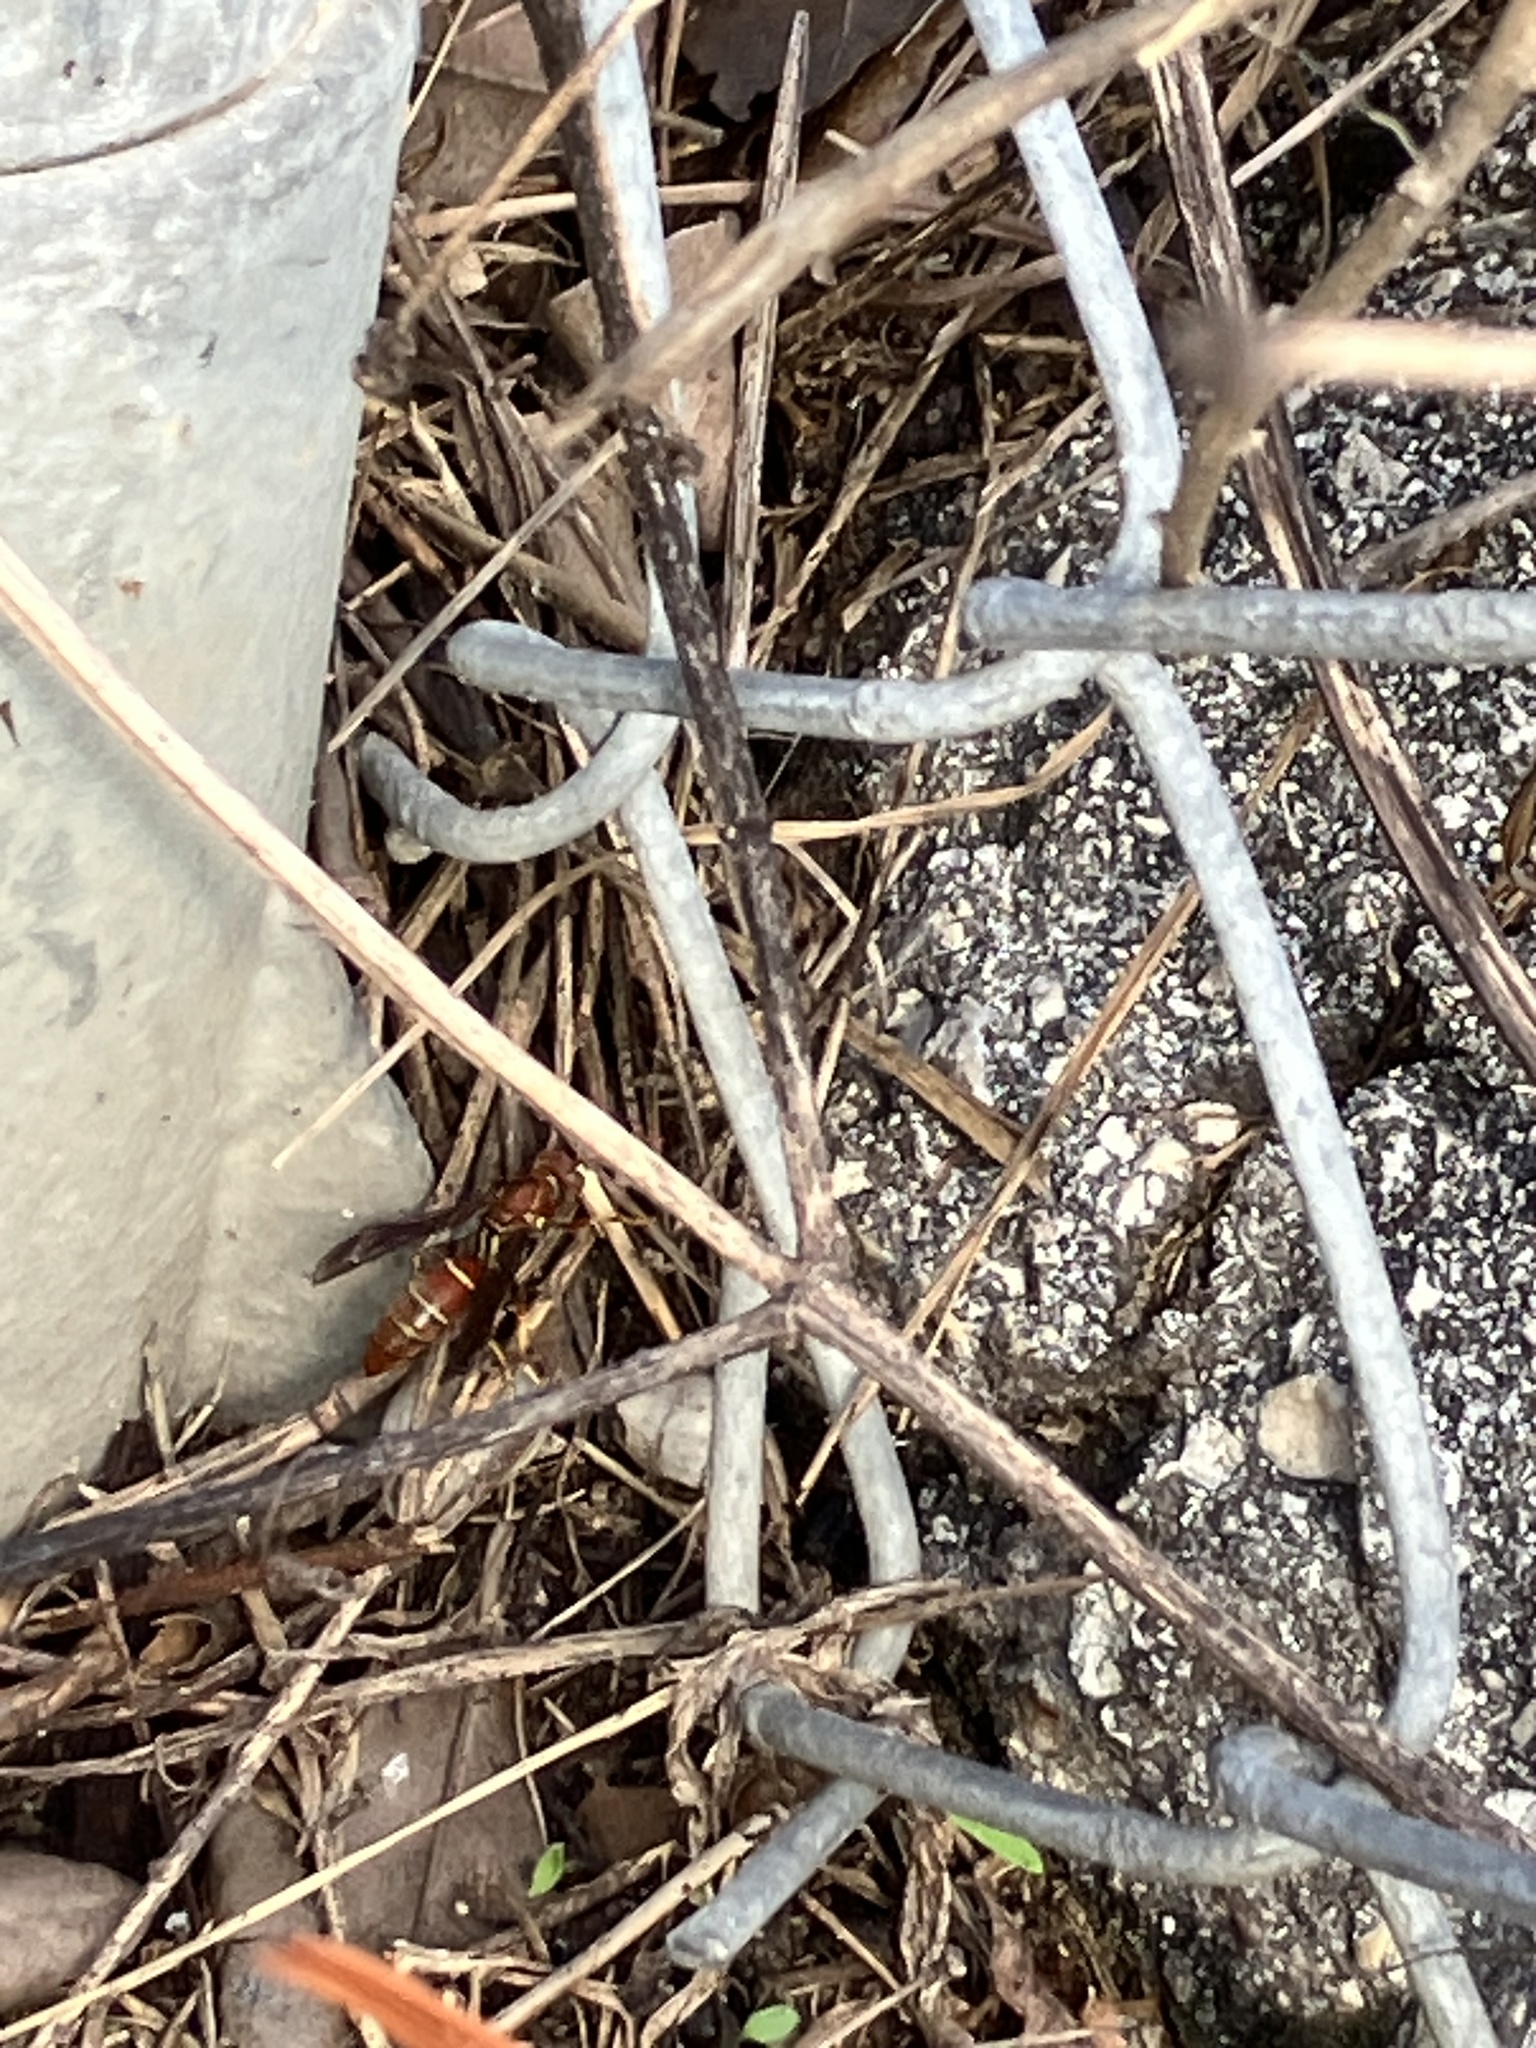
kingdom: Animalia
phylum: Arthropoda
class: Insecta
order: Hymenoptera
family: Vespidae
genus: Fuscopolistes
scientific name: Fuscopolistes
